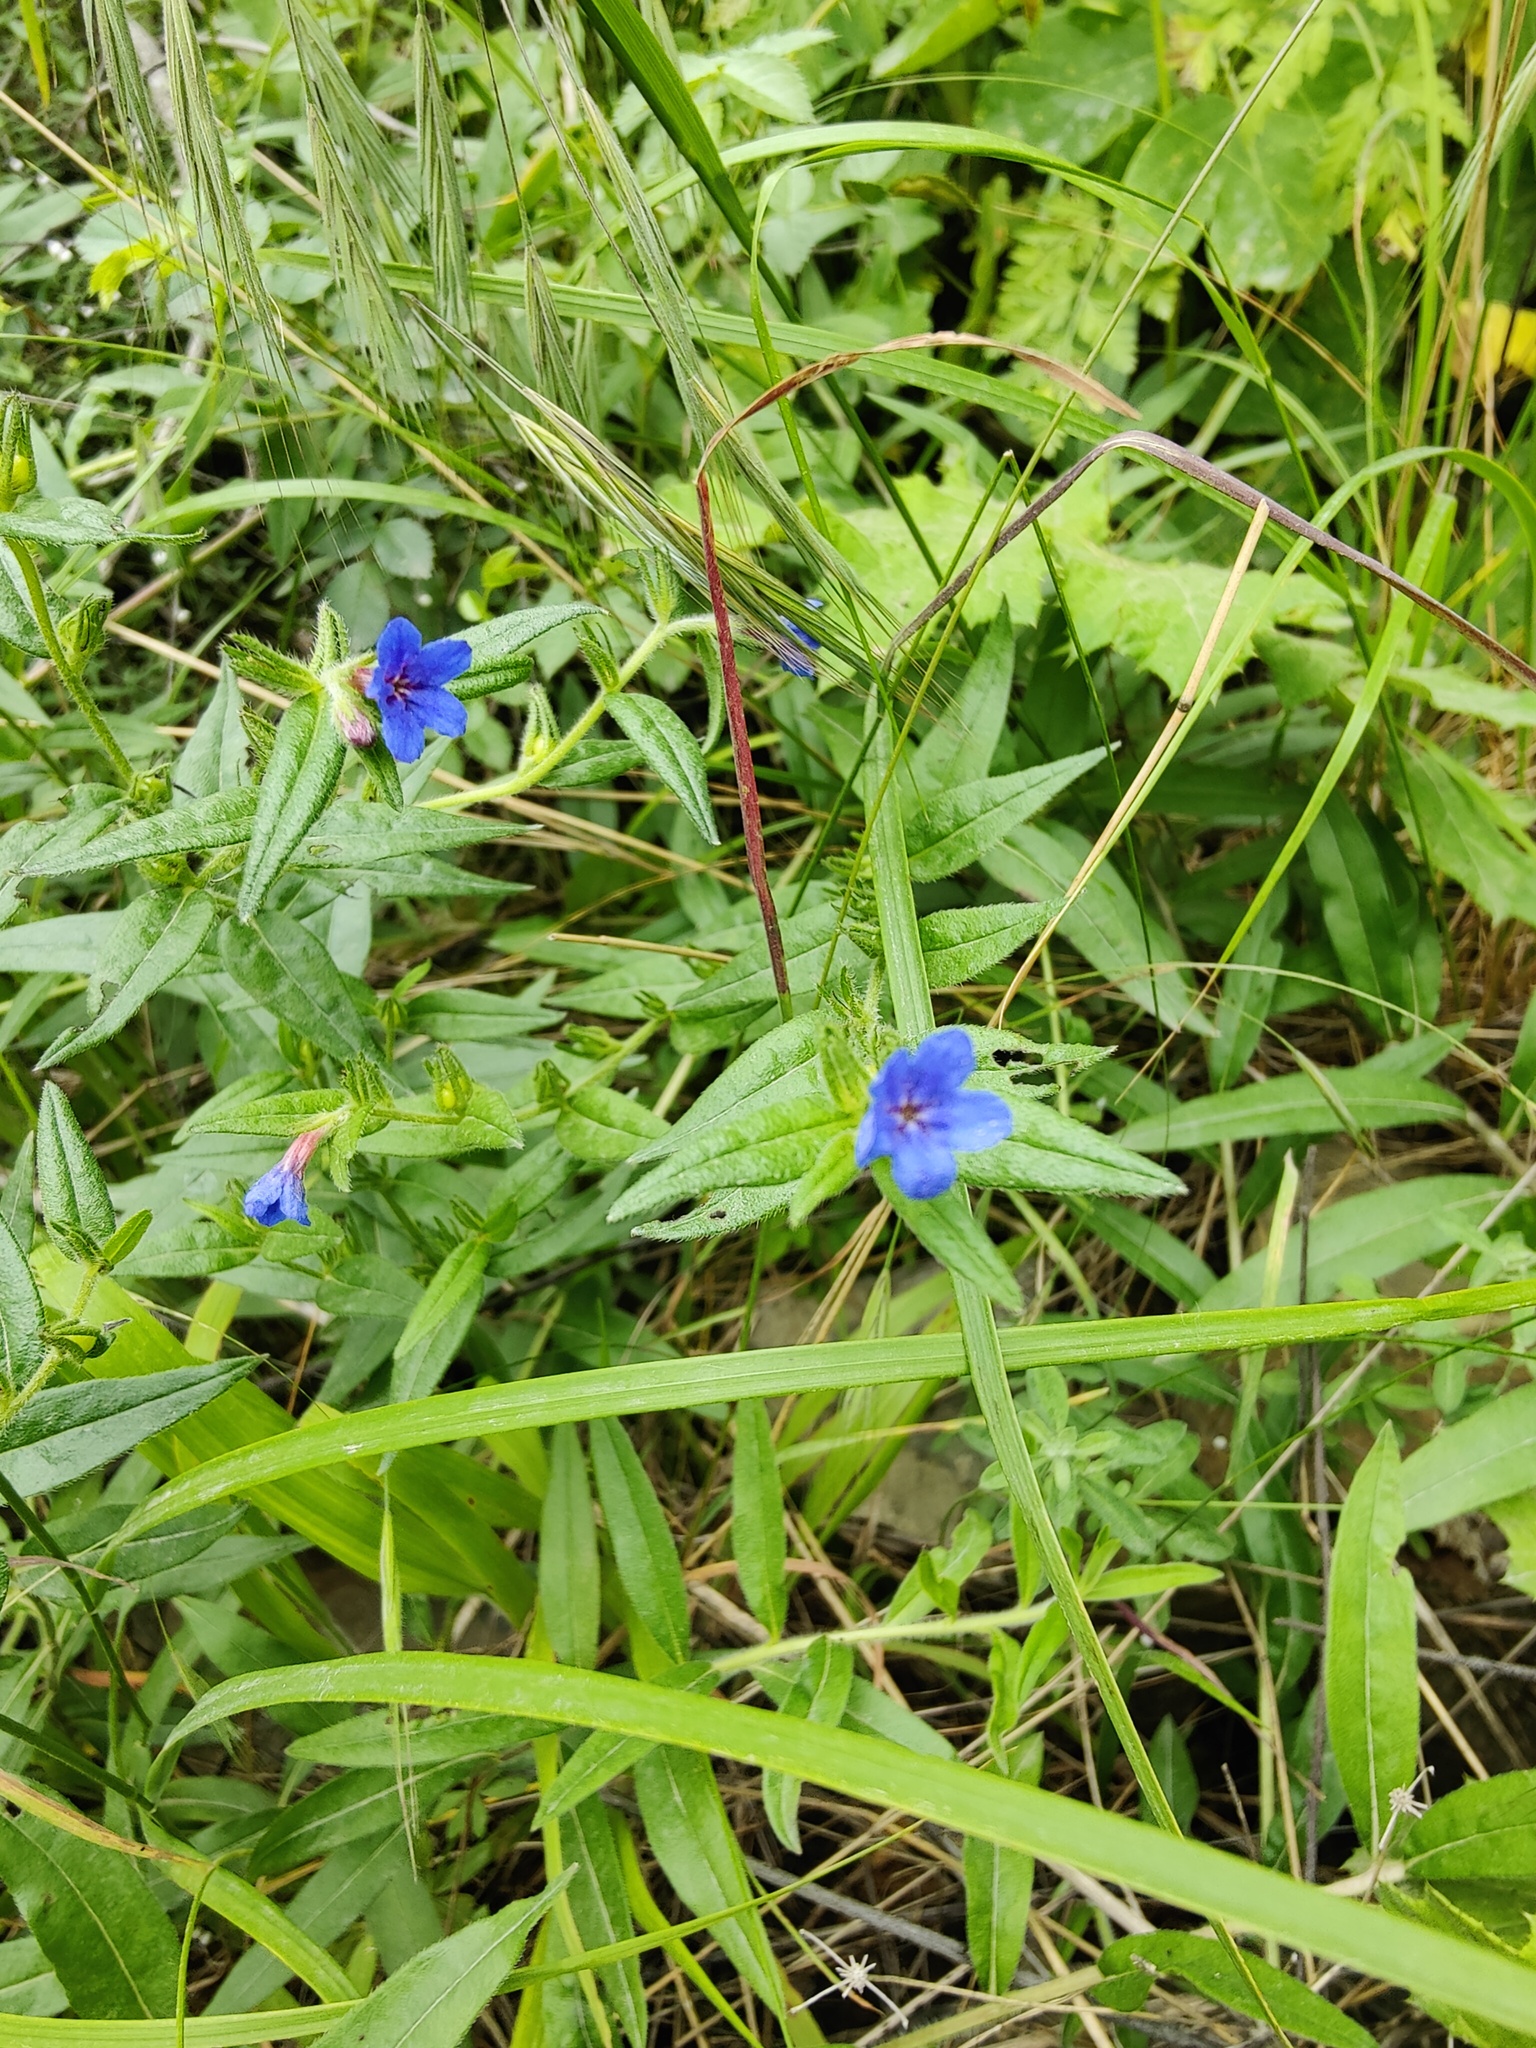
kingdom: Plantae
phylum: Tracheophyta
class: Magnoliopsida
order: Boraginales
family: Boraginaceae
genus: Aegonychon
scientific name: Aegonychon purpurocaeruleum
